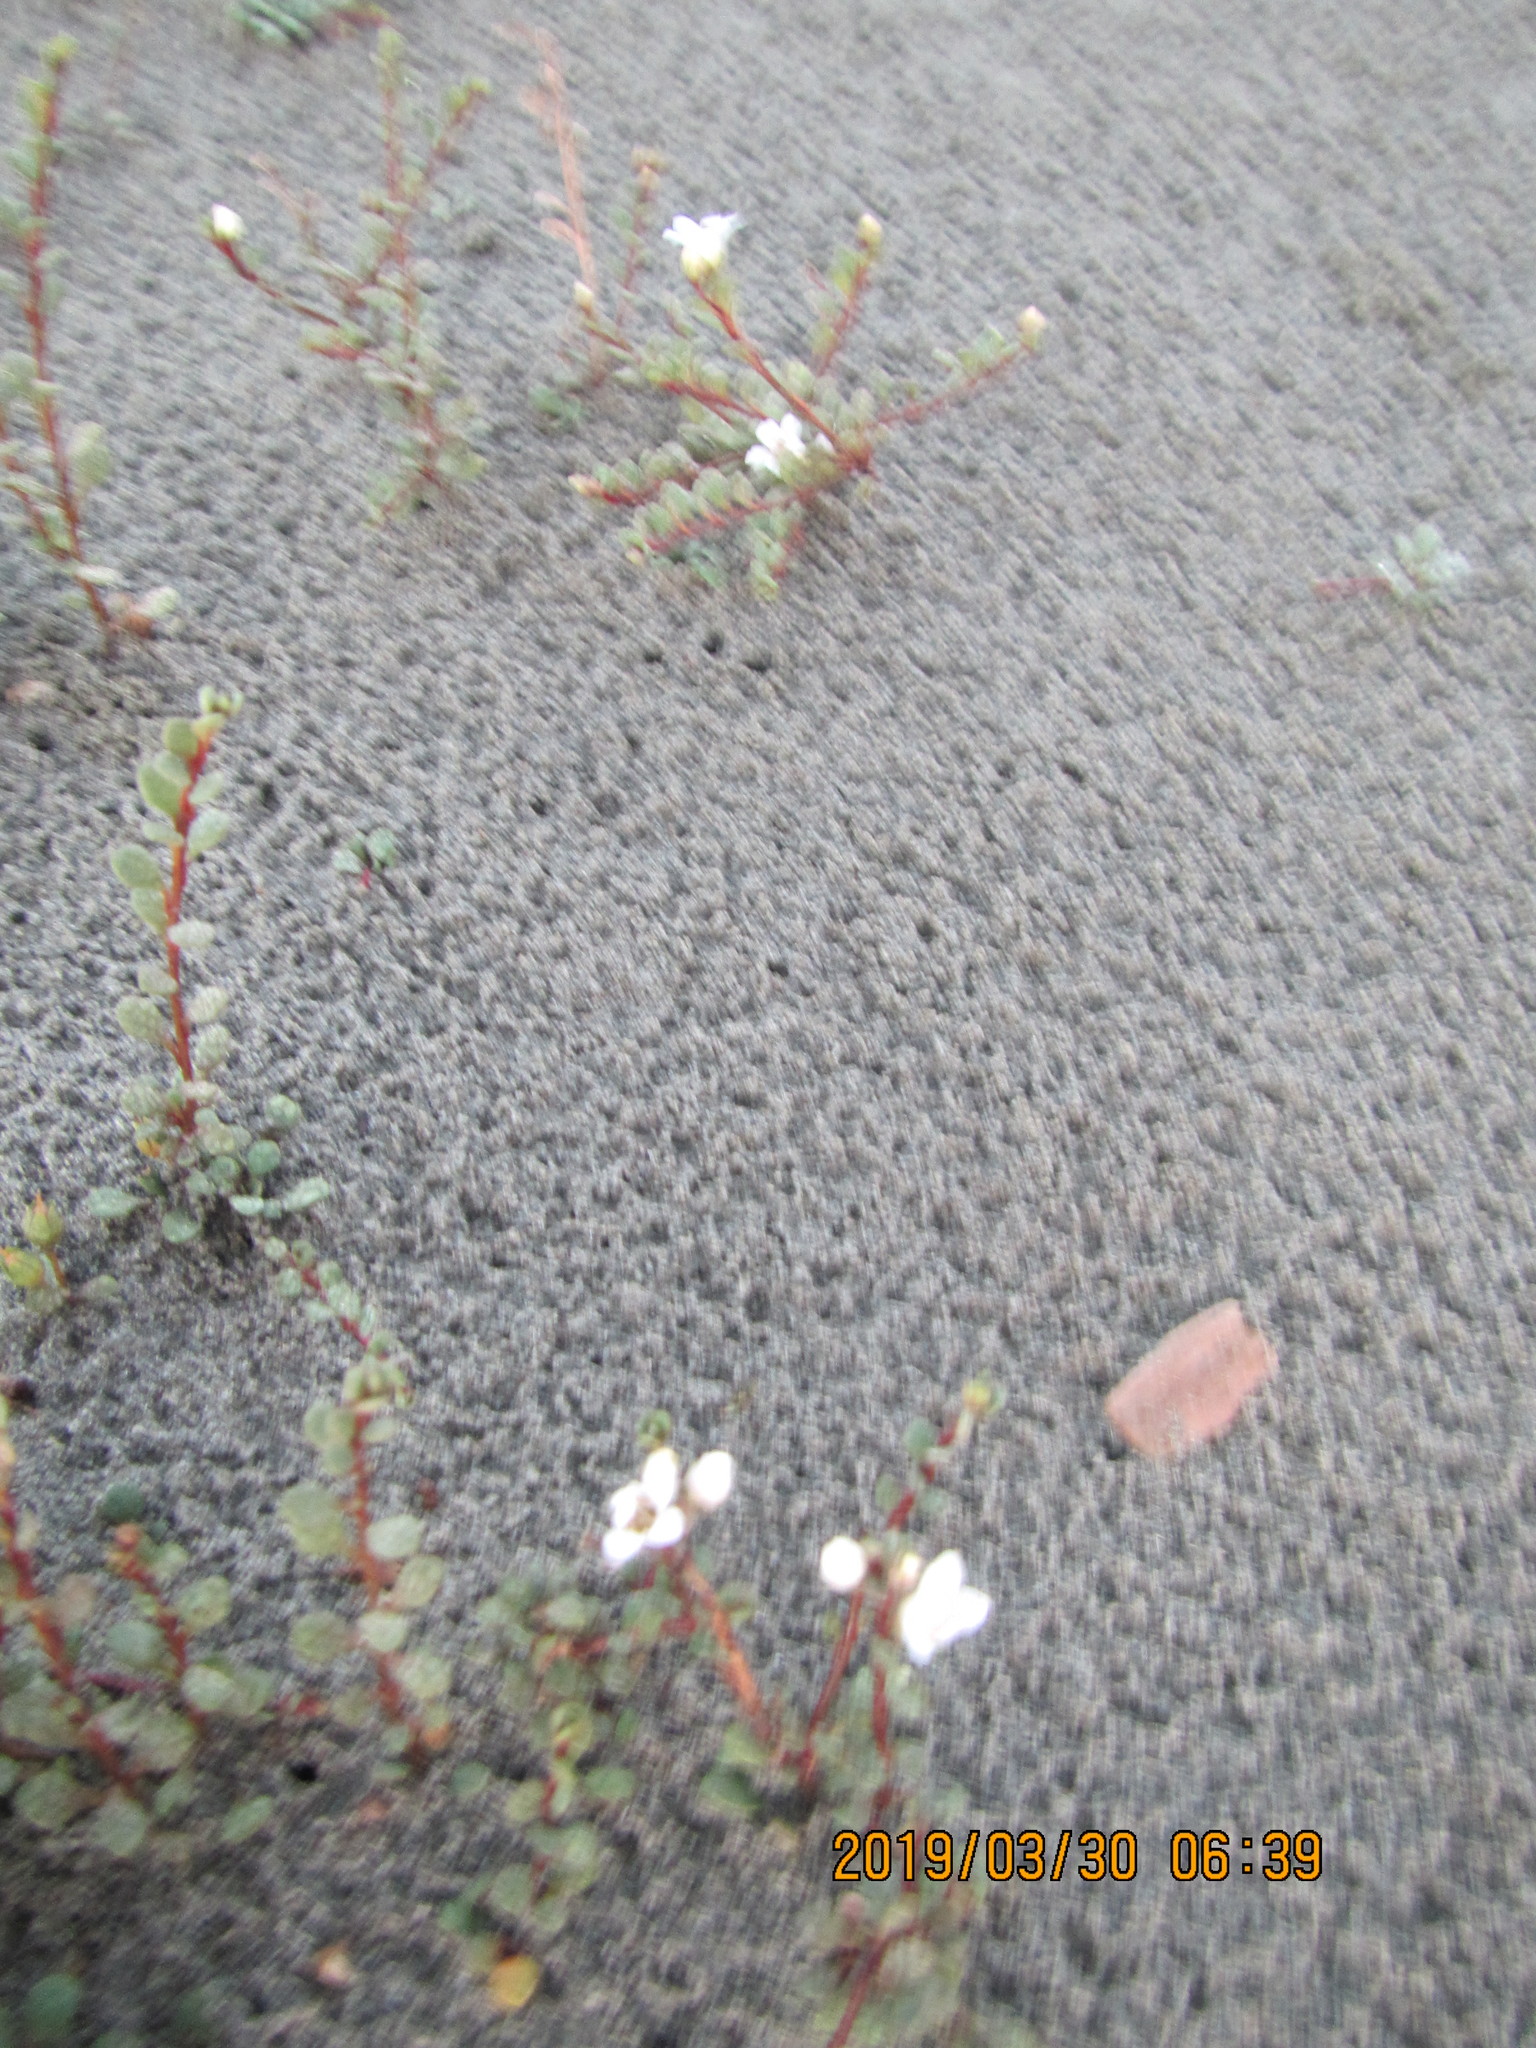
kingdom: Plantae
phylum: Tracheophyta
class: Magnoliopsida
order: Ericales
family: Primulaceae
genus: Samolus
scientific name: Samolus repens
